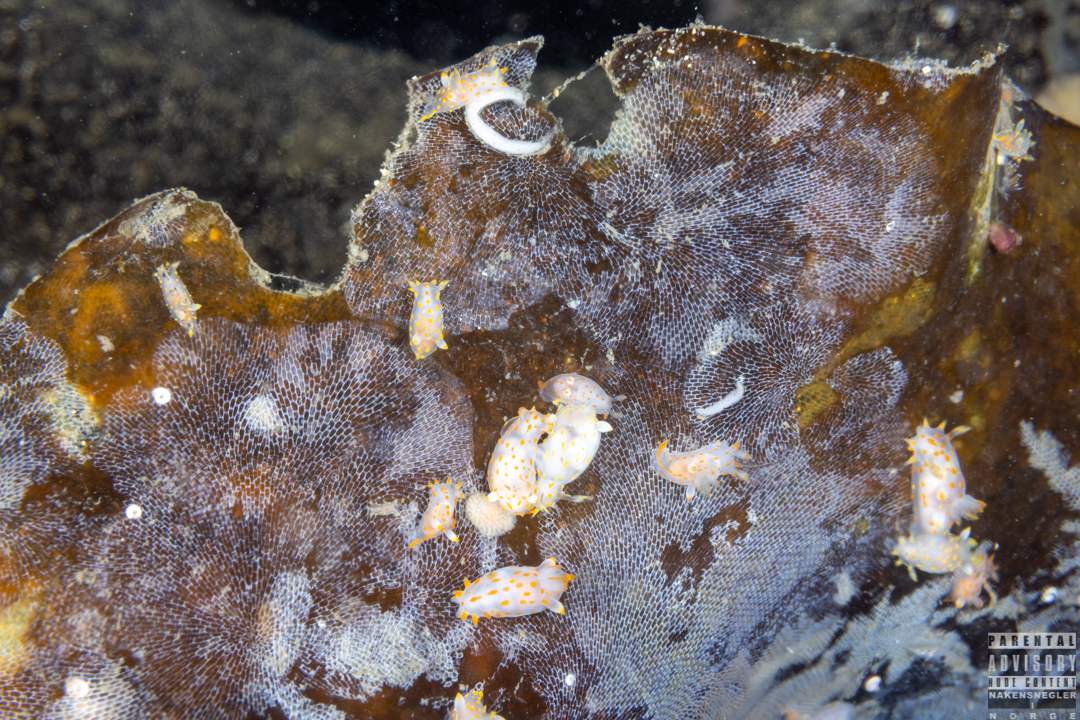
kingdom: Animalia
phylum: Mollusca
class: Gastropoda
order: Nudibranchia
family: Polyceridae
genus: Polycera
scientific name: Polycera quadrilineata
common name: Four-striped polycera
